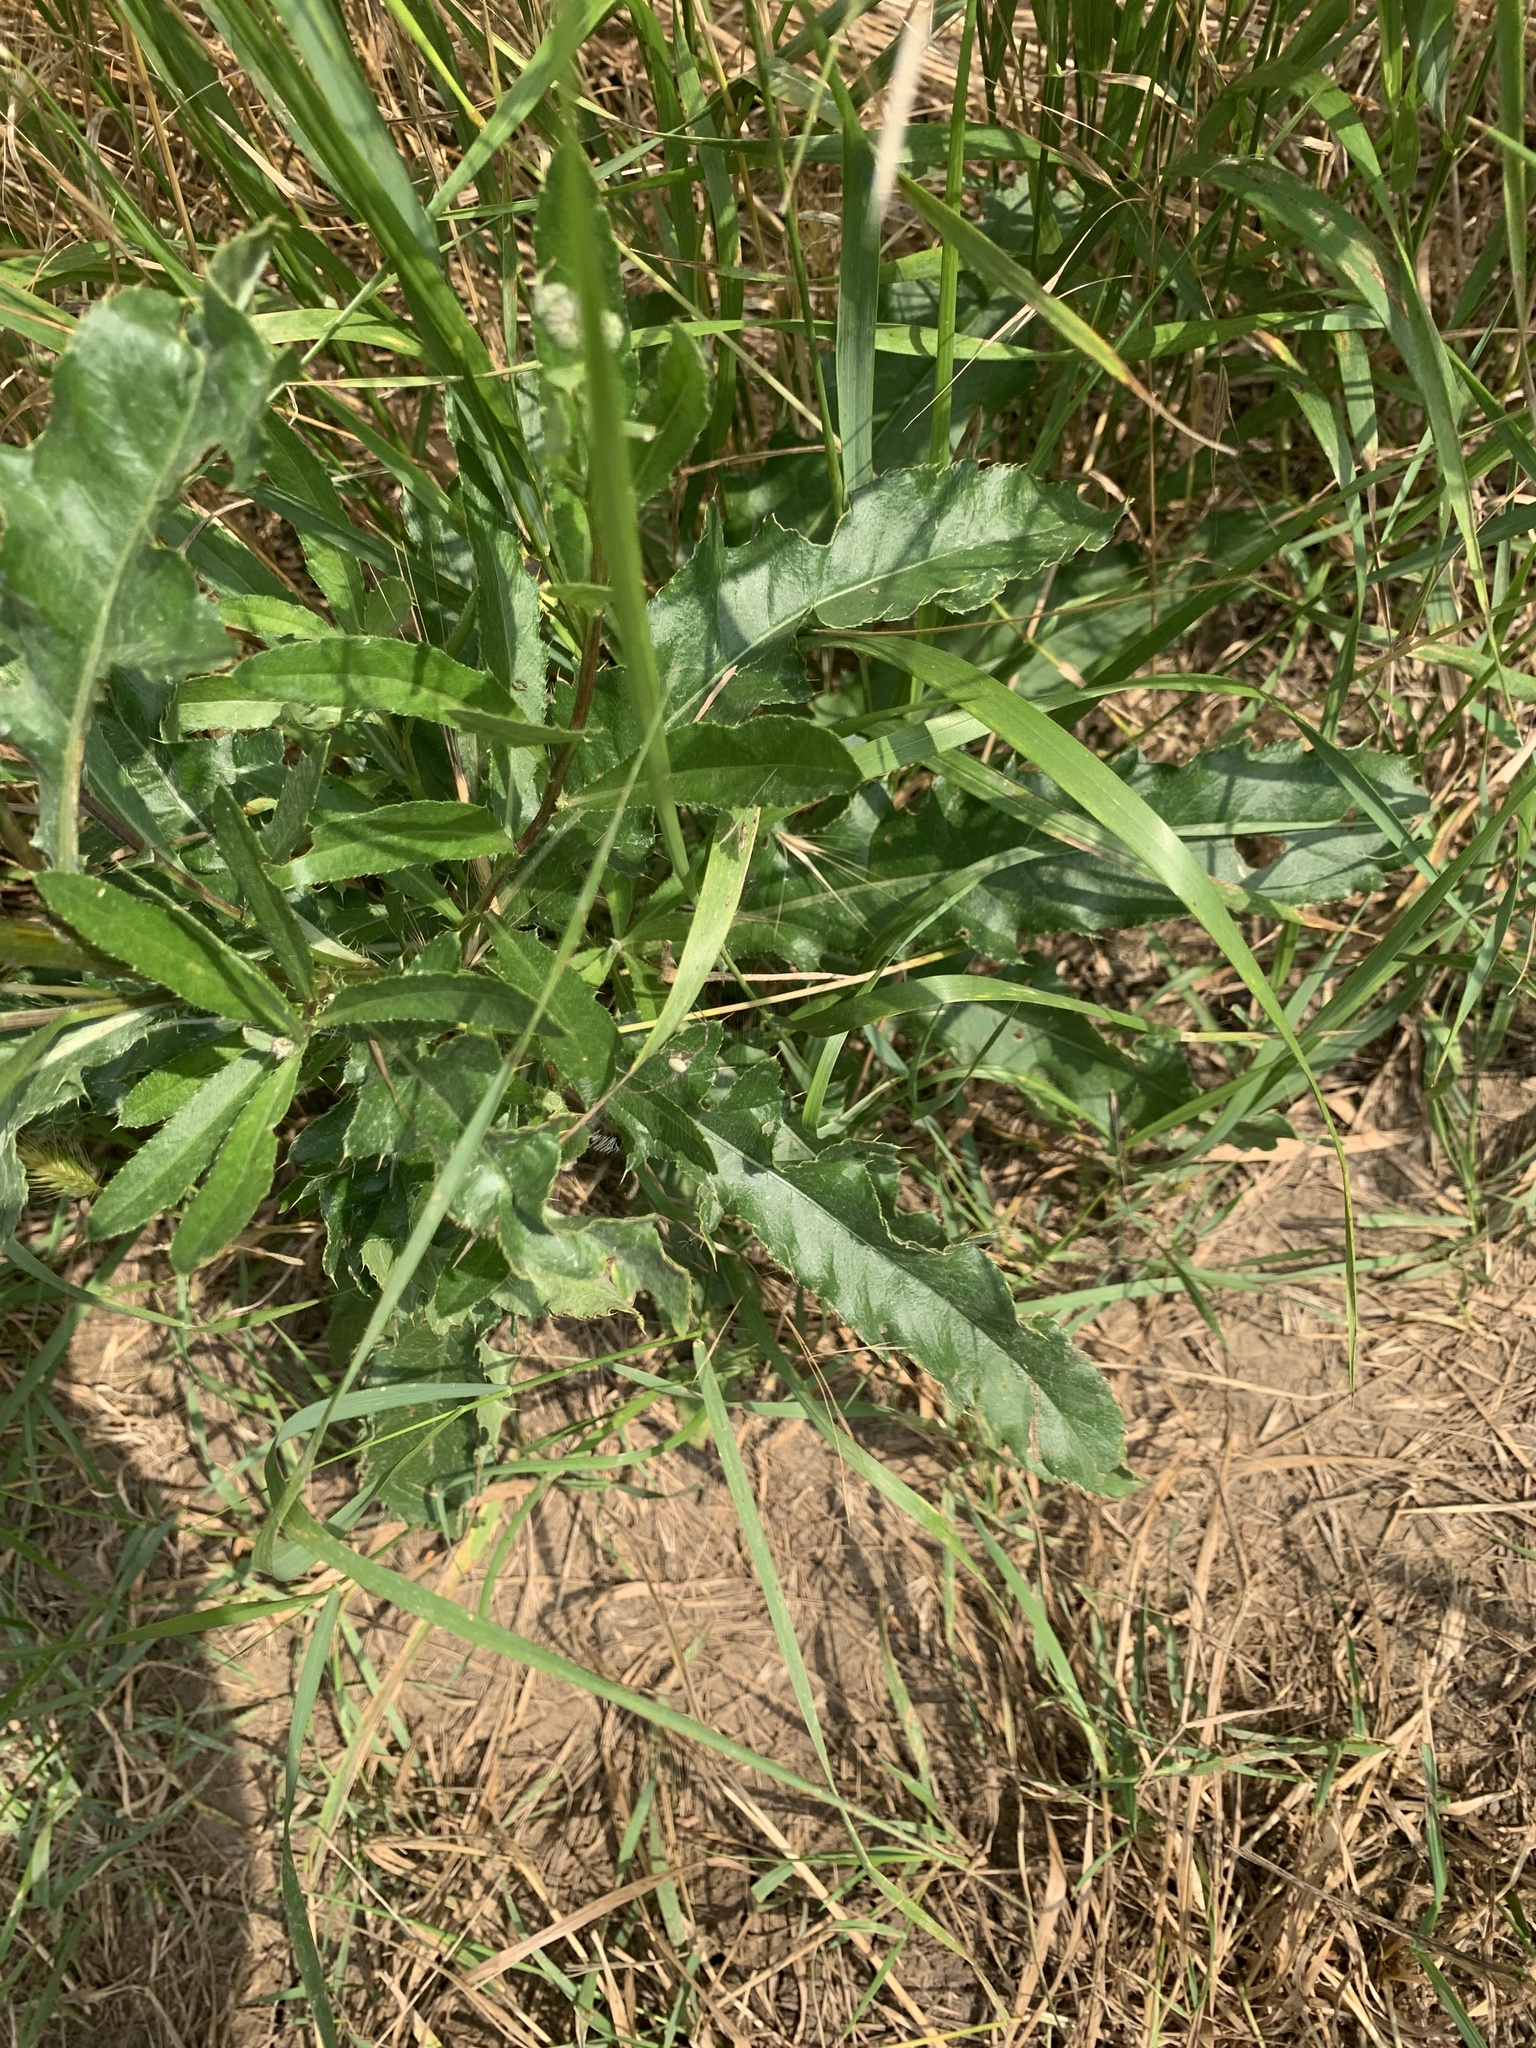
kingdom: Plantae
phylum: Tracheophyta
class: Magnoliopsida
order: Asterales
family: Asteraceae
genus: Cirsium
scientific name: Cirsium arvense
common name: Creeping thistle
